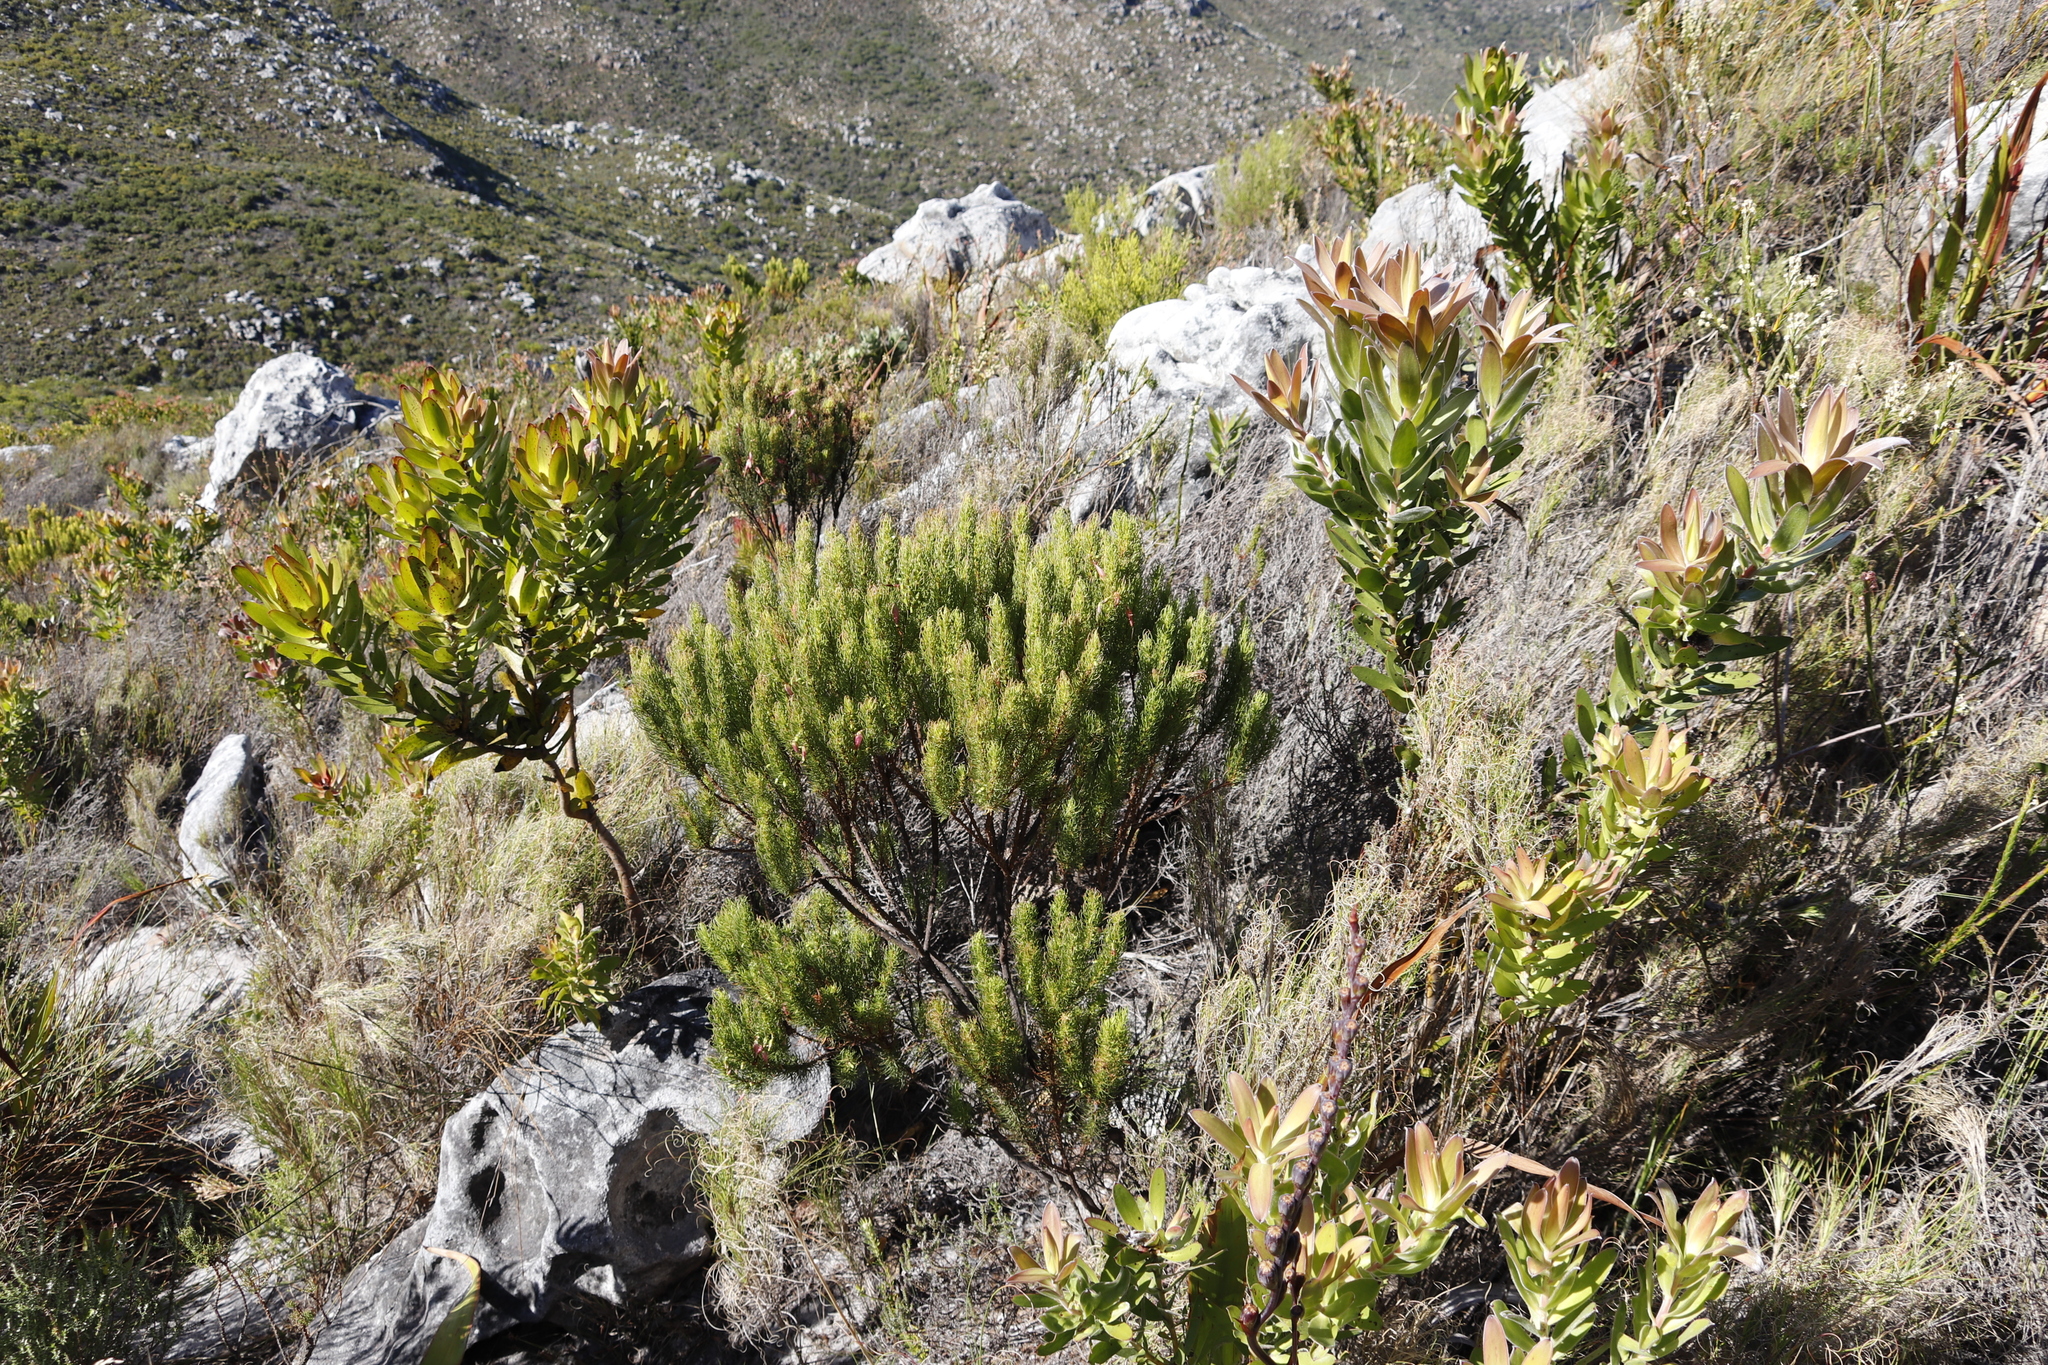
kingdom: Plantae
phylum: Tracheophyta
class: Magnoliopsida
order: Ericales
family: Ericaceae
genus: Erica
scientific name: Erica plukenetii
